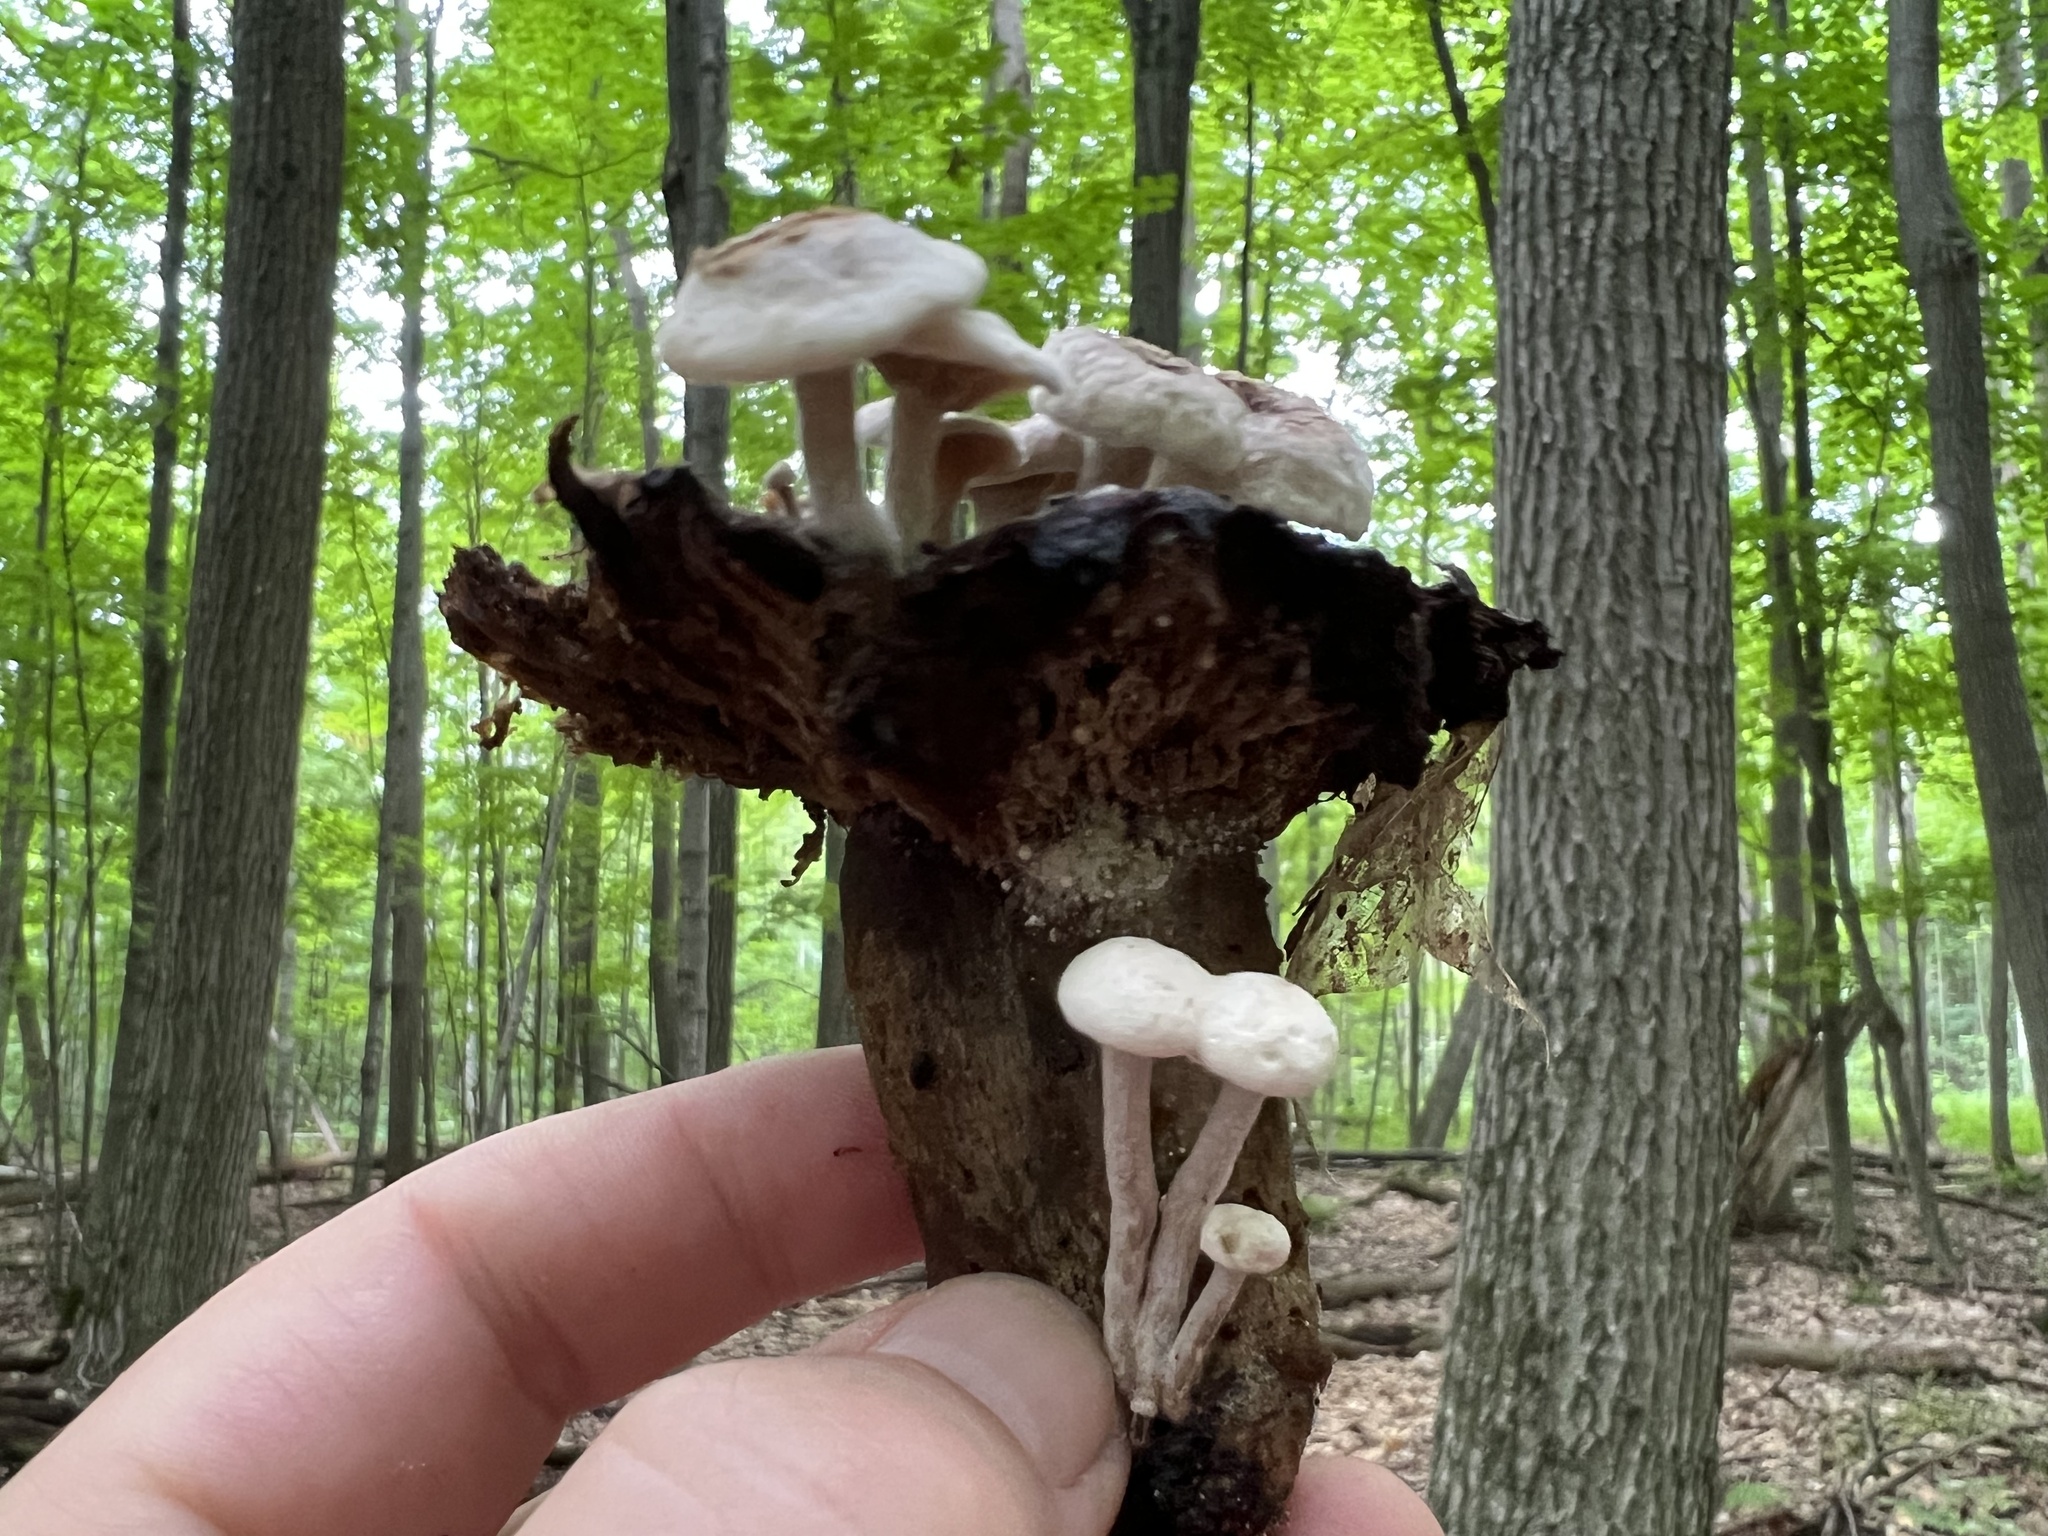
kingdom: Fungi
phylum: Basidiomycota
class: Agaricomycetes
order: Agaricales
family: Lyophyllaceae
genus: Asterophora
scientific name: Asterophora lycoperdoides
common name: Pick-a-back toadstool
